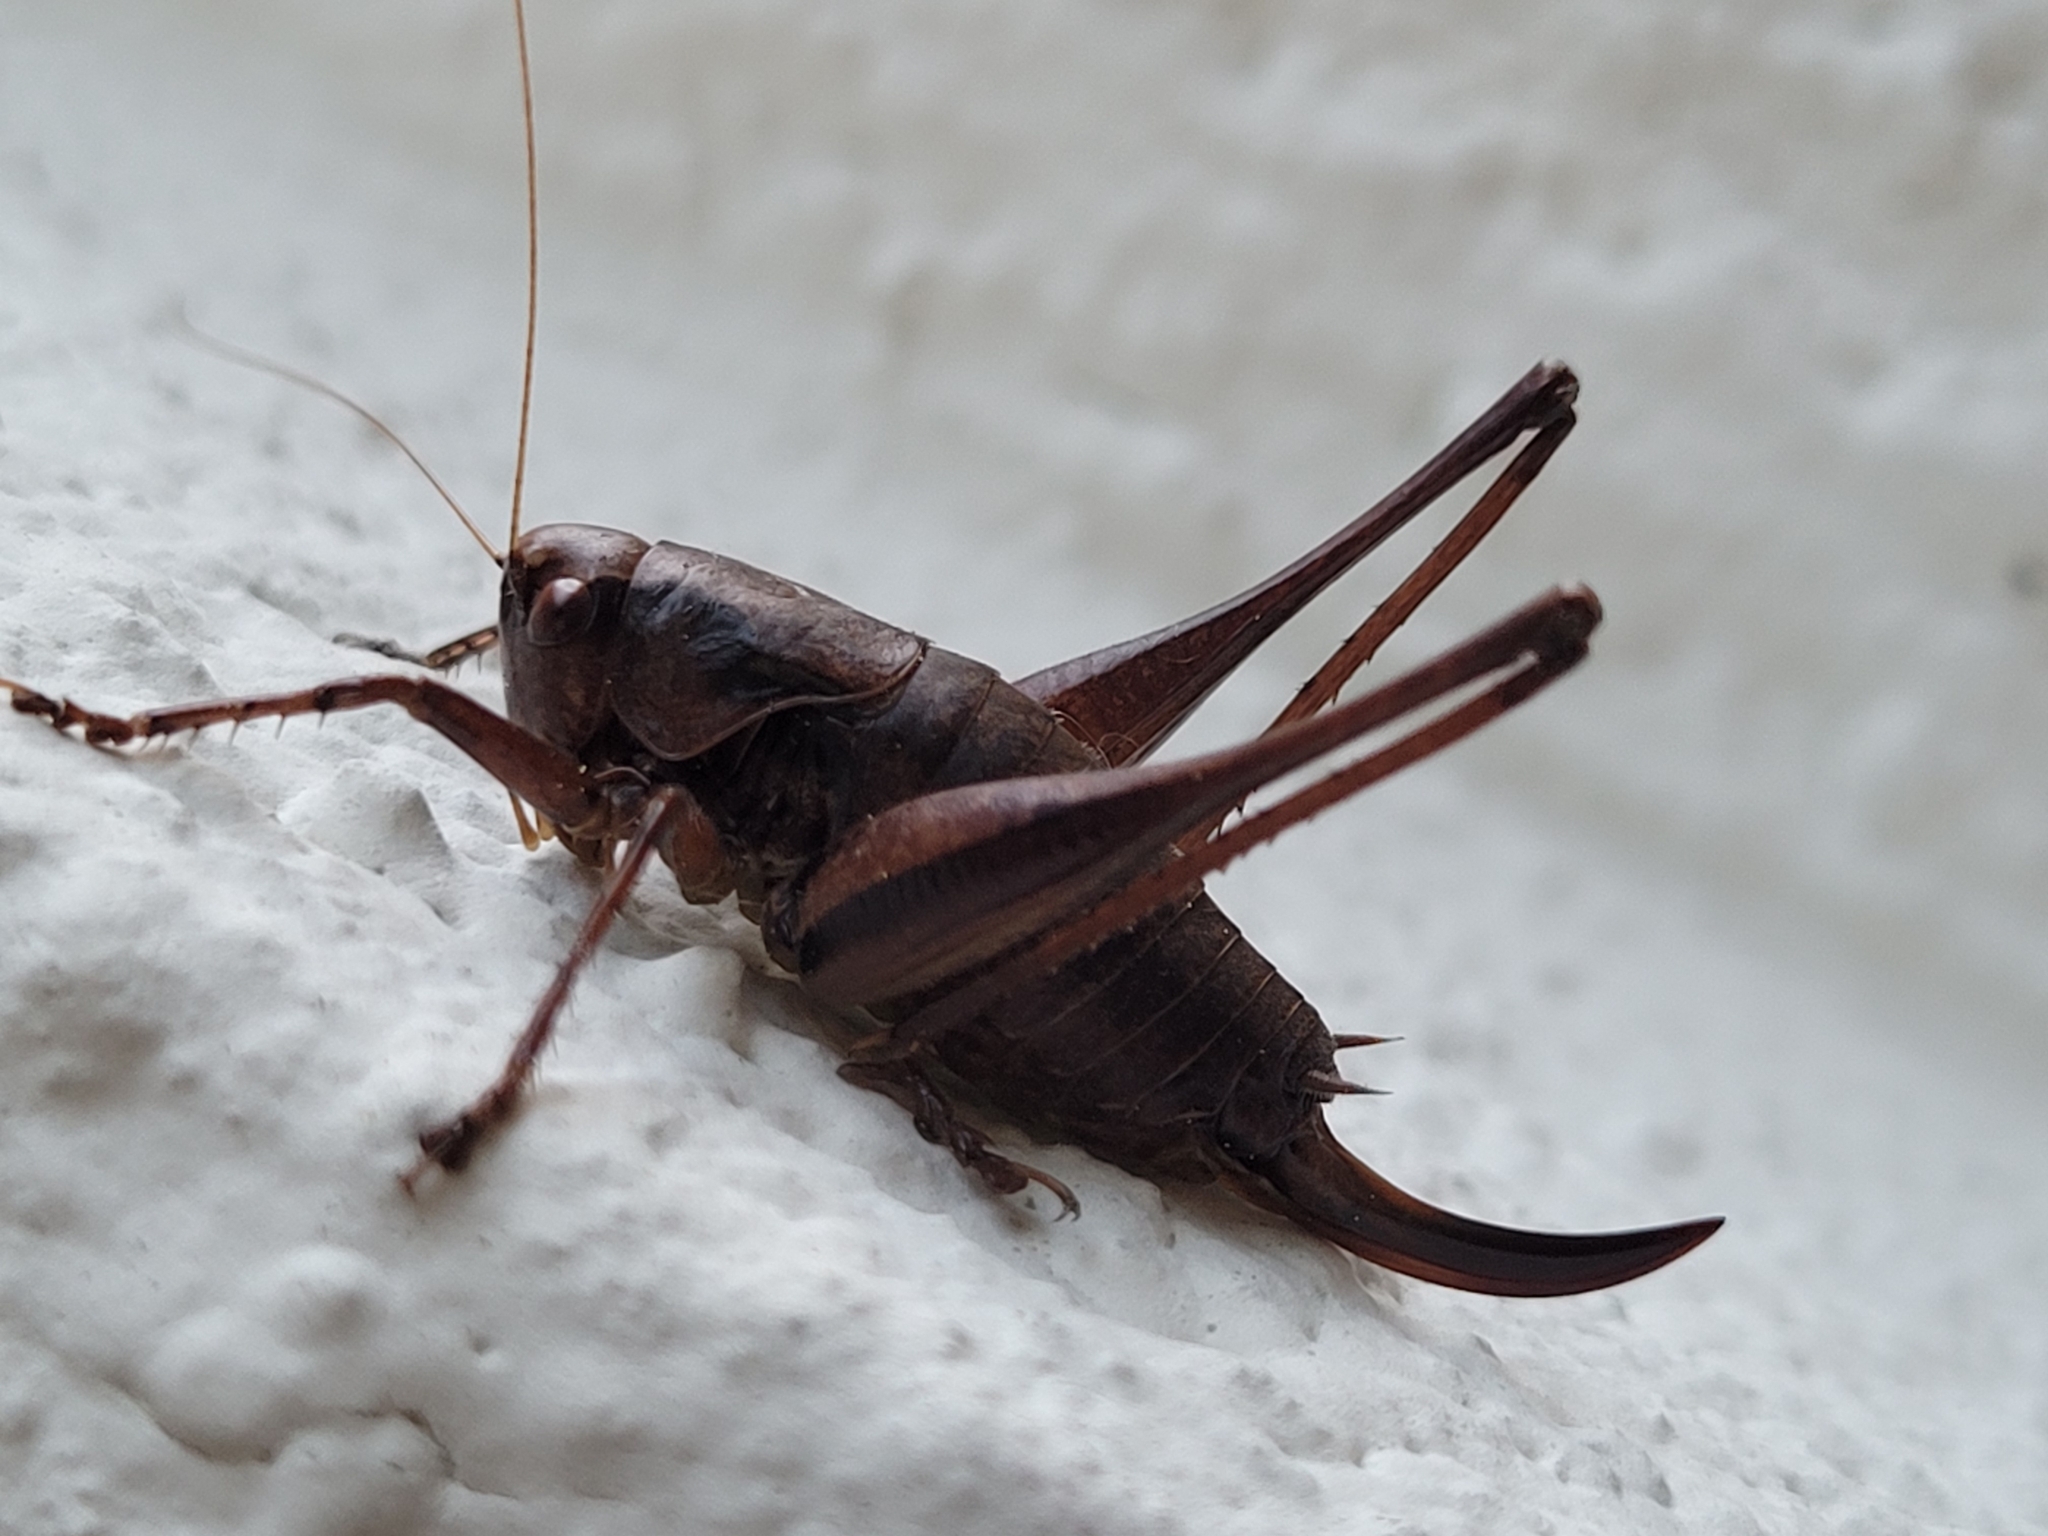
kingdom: Animalia
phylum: Arthropoda
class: Insecta
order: Orthoptera
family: Tettigoniidae
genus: Pholidoptera
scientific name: Pholidoptera griseoaptera
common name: Dark bush-cricket
